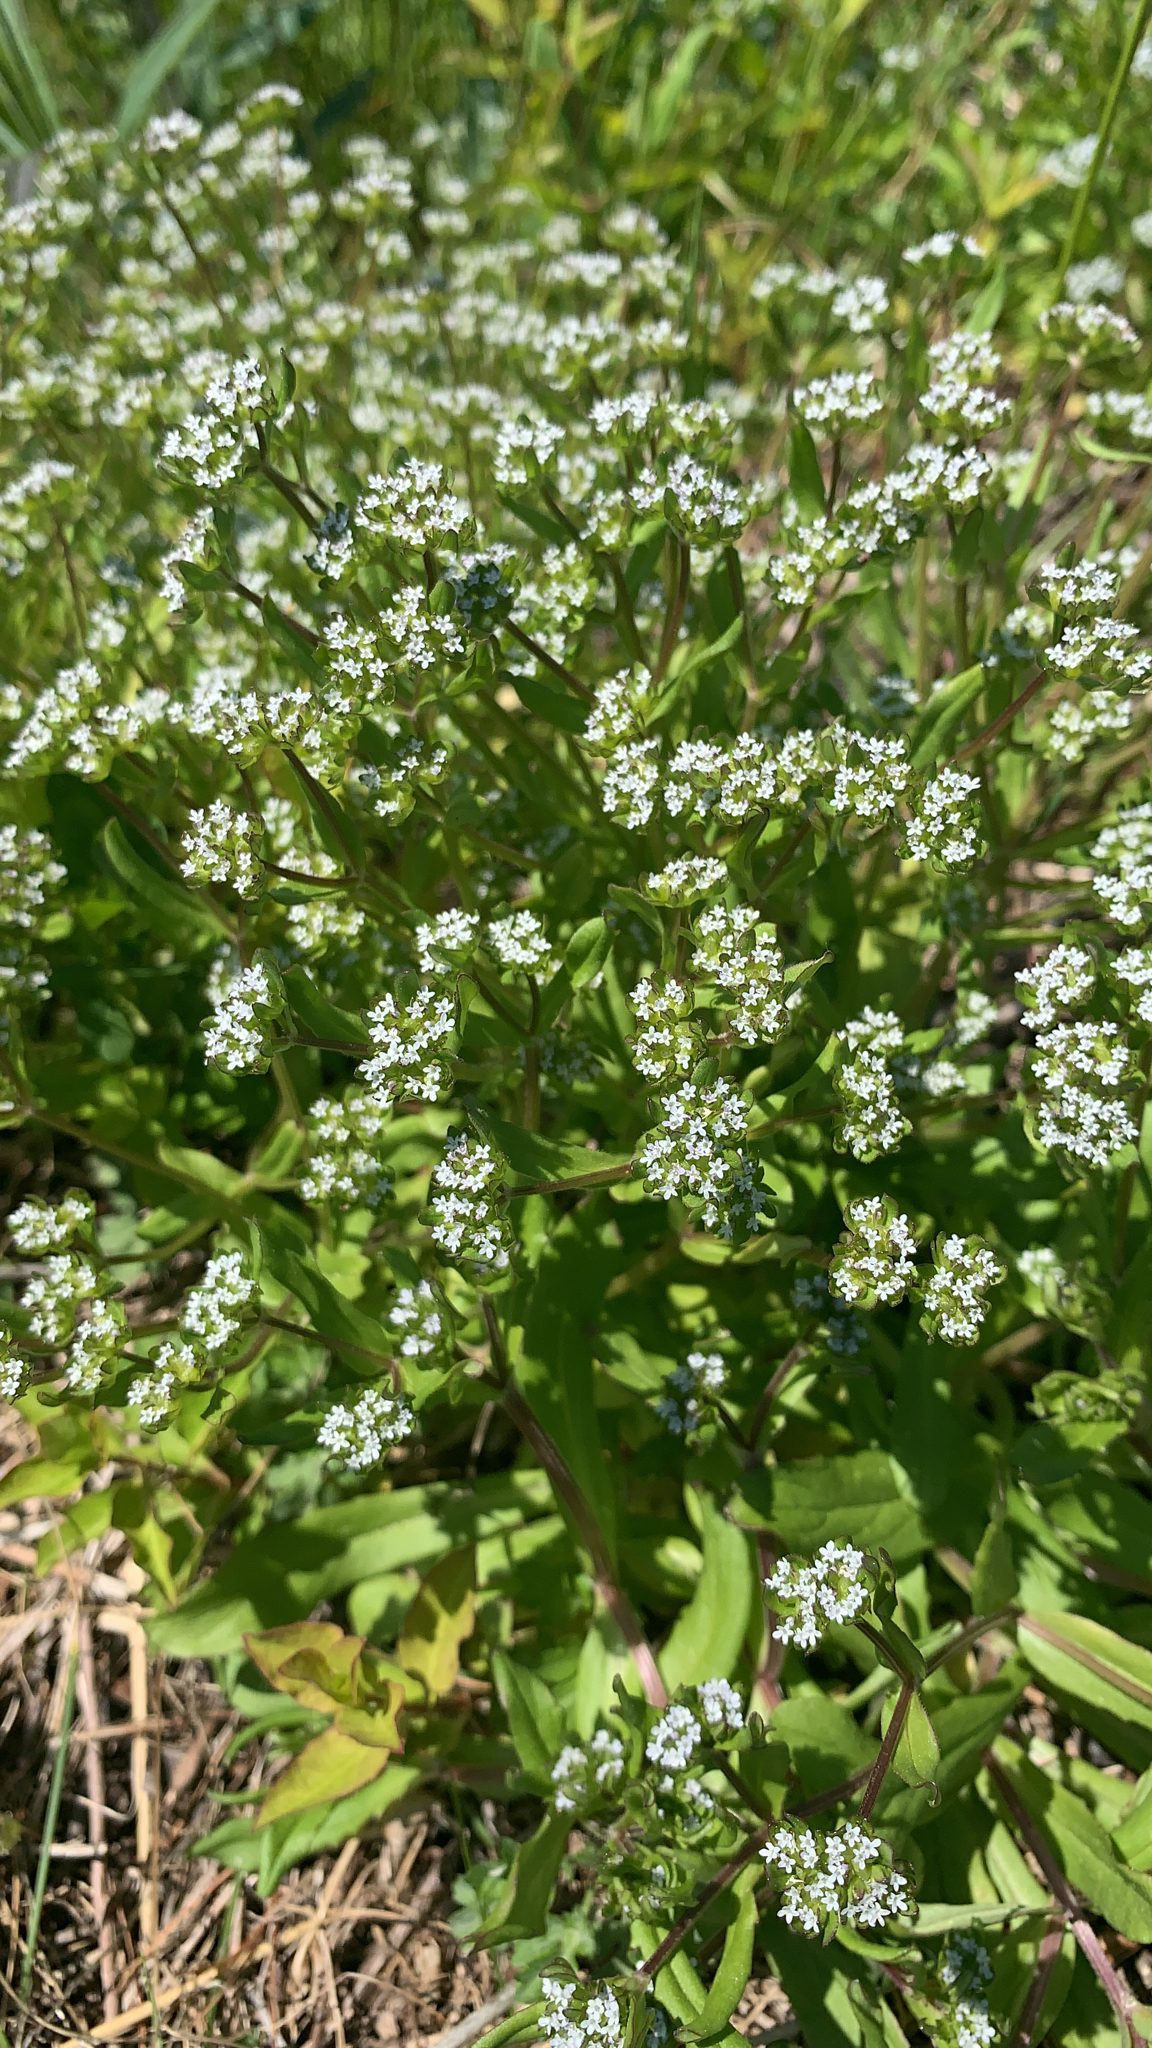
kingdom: Plantae
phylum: Tracheophyta
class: Magnoliopsida
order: Dipsacales
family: Caprifoliaceae
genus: Valerianella
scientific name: Valerianella locusta
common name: Common cornsalad
